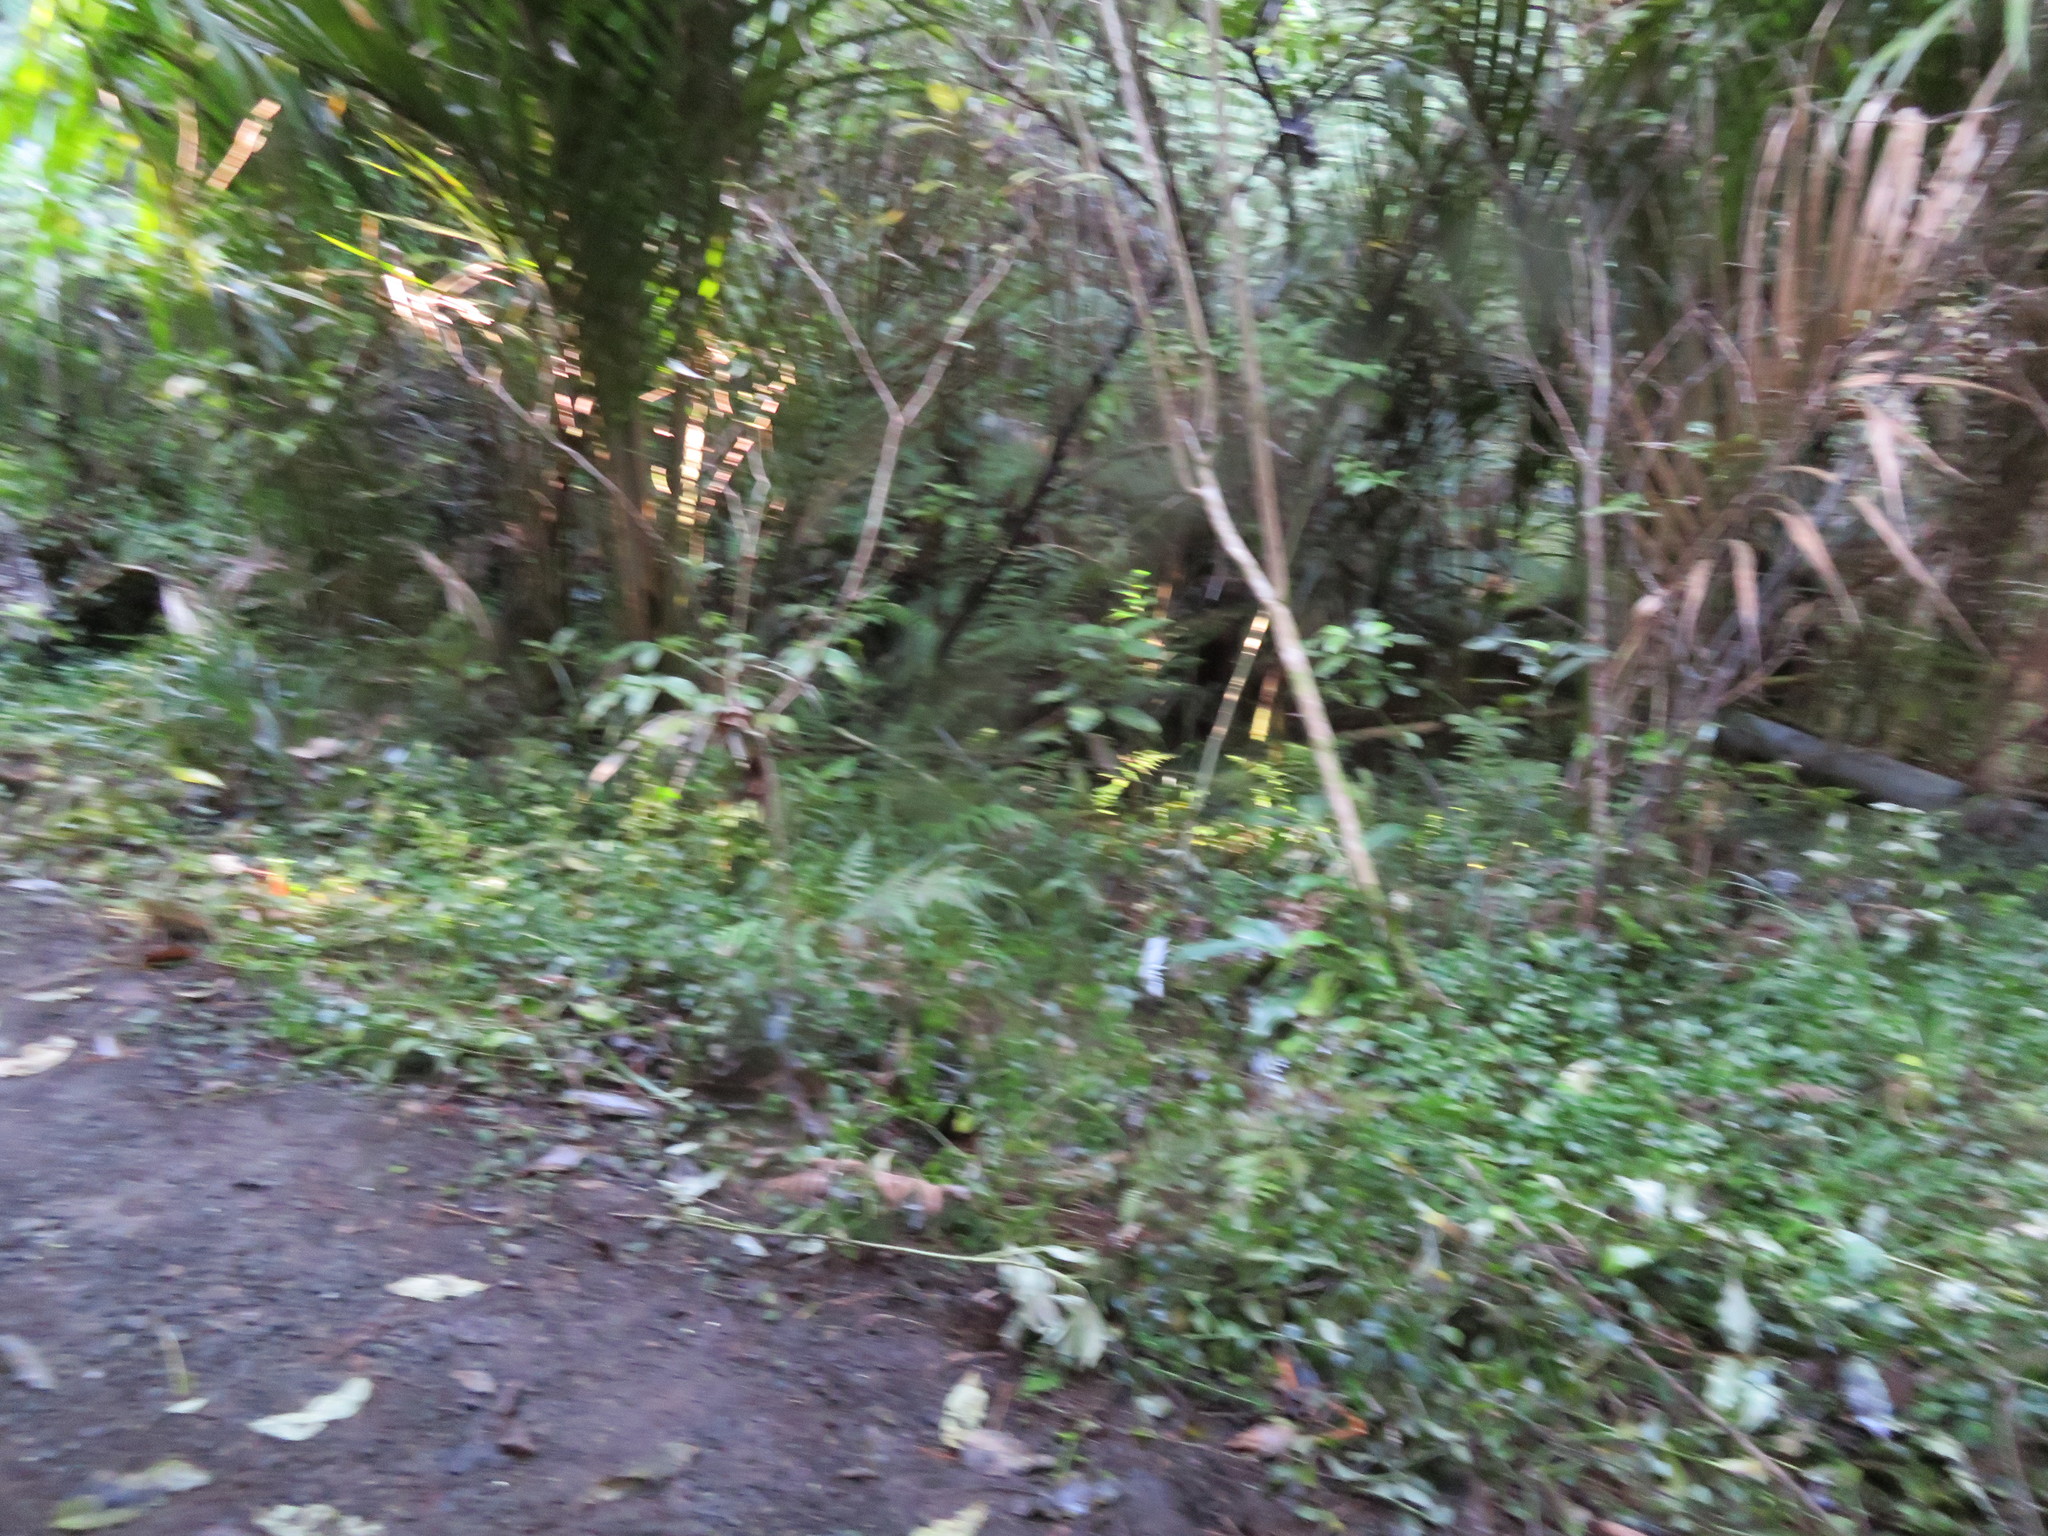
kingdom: Plantae
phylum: Tracheophyta
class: Liliopsida
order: Commelinales
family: Commelinaceae
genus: Tradescantia
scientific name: Tradescantia fluminensis
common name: Wandering-jew
